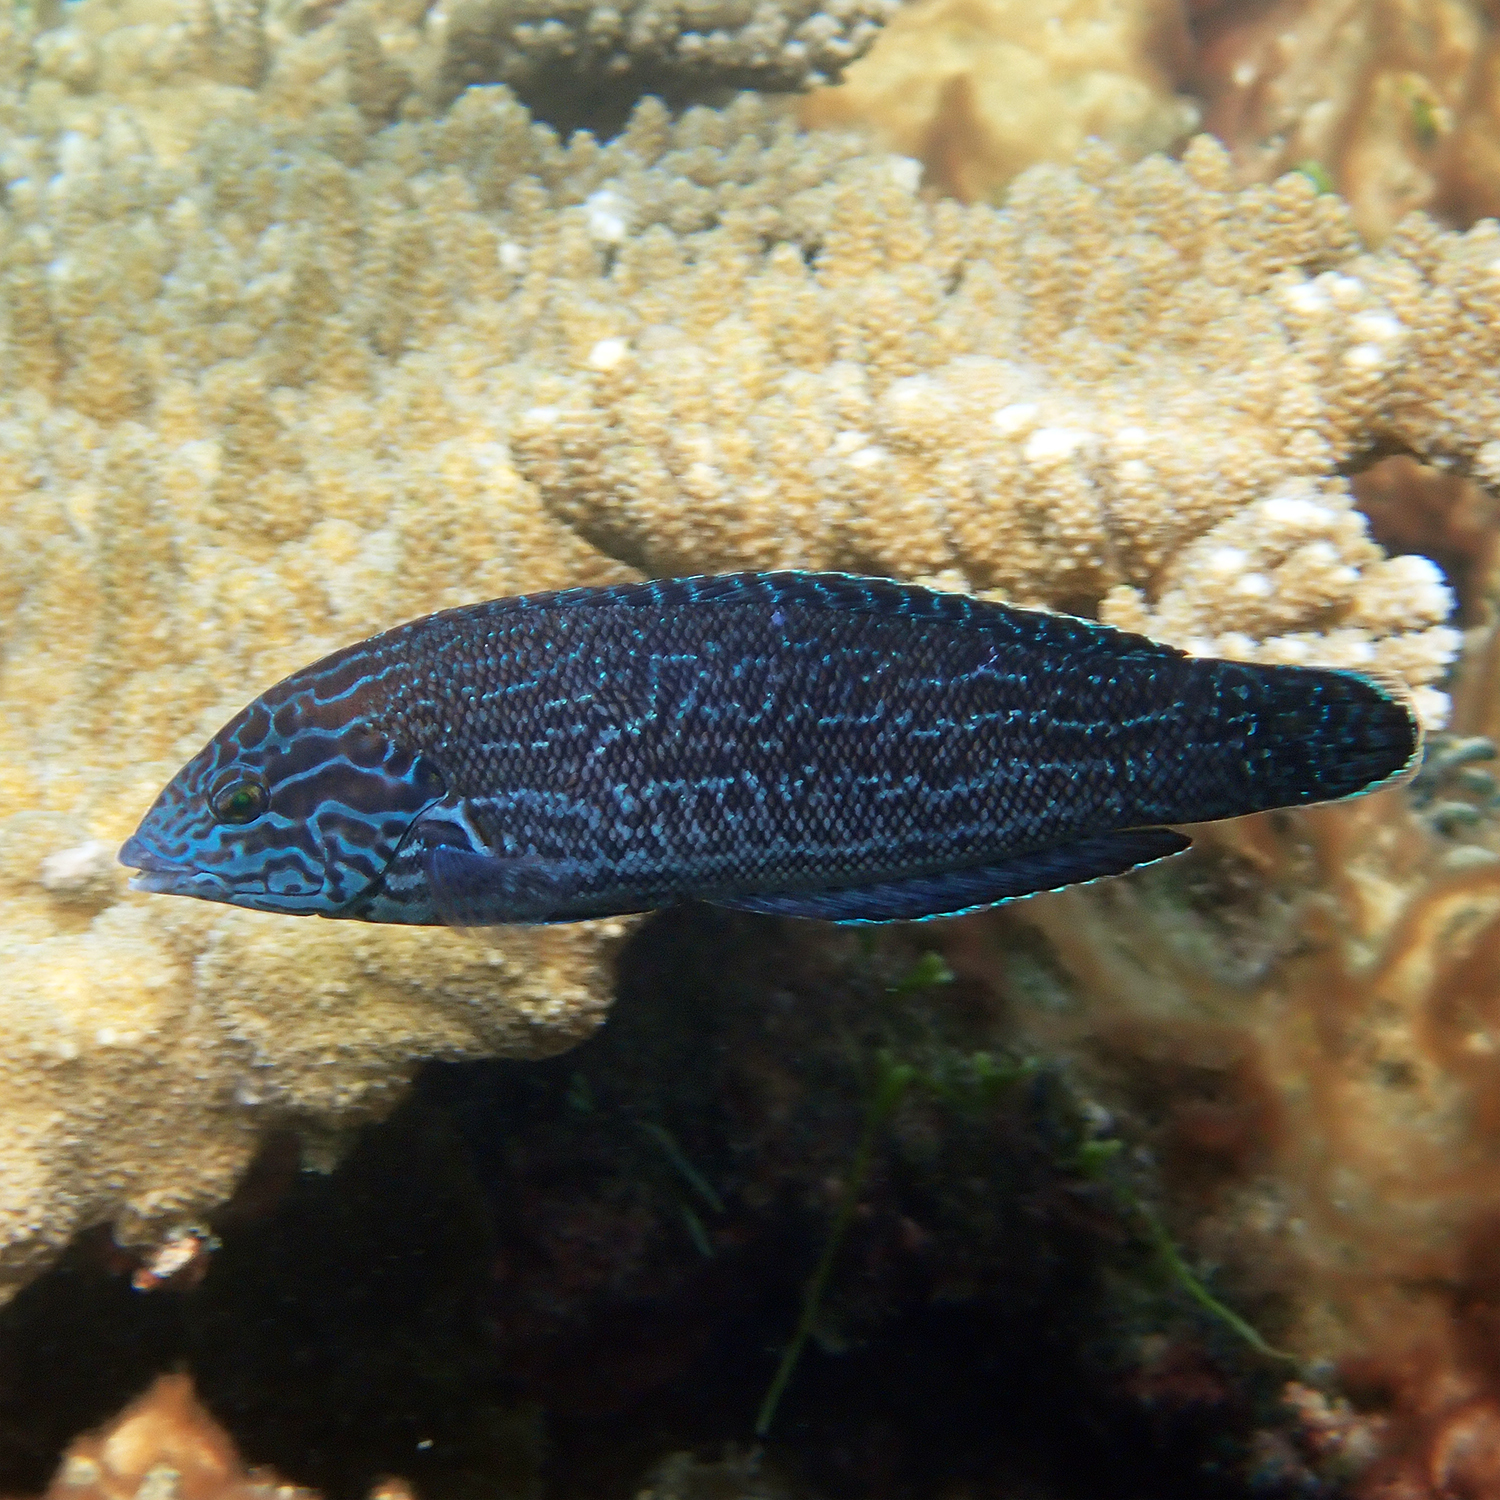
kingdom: Animalia
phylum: Chordata
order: Perciformes
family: Labridae
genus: Coris
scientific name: Coris bulbifrons
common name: Doubleheader
